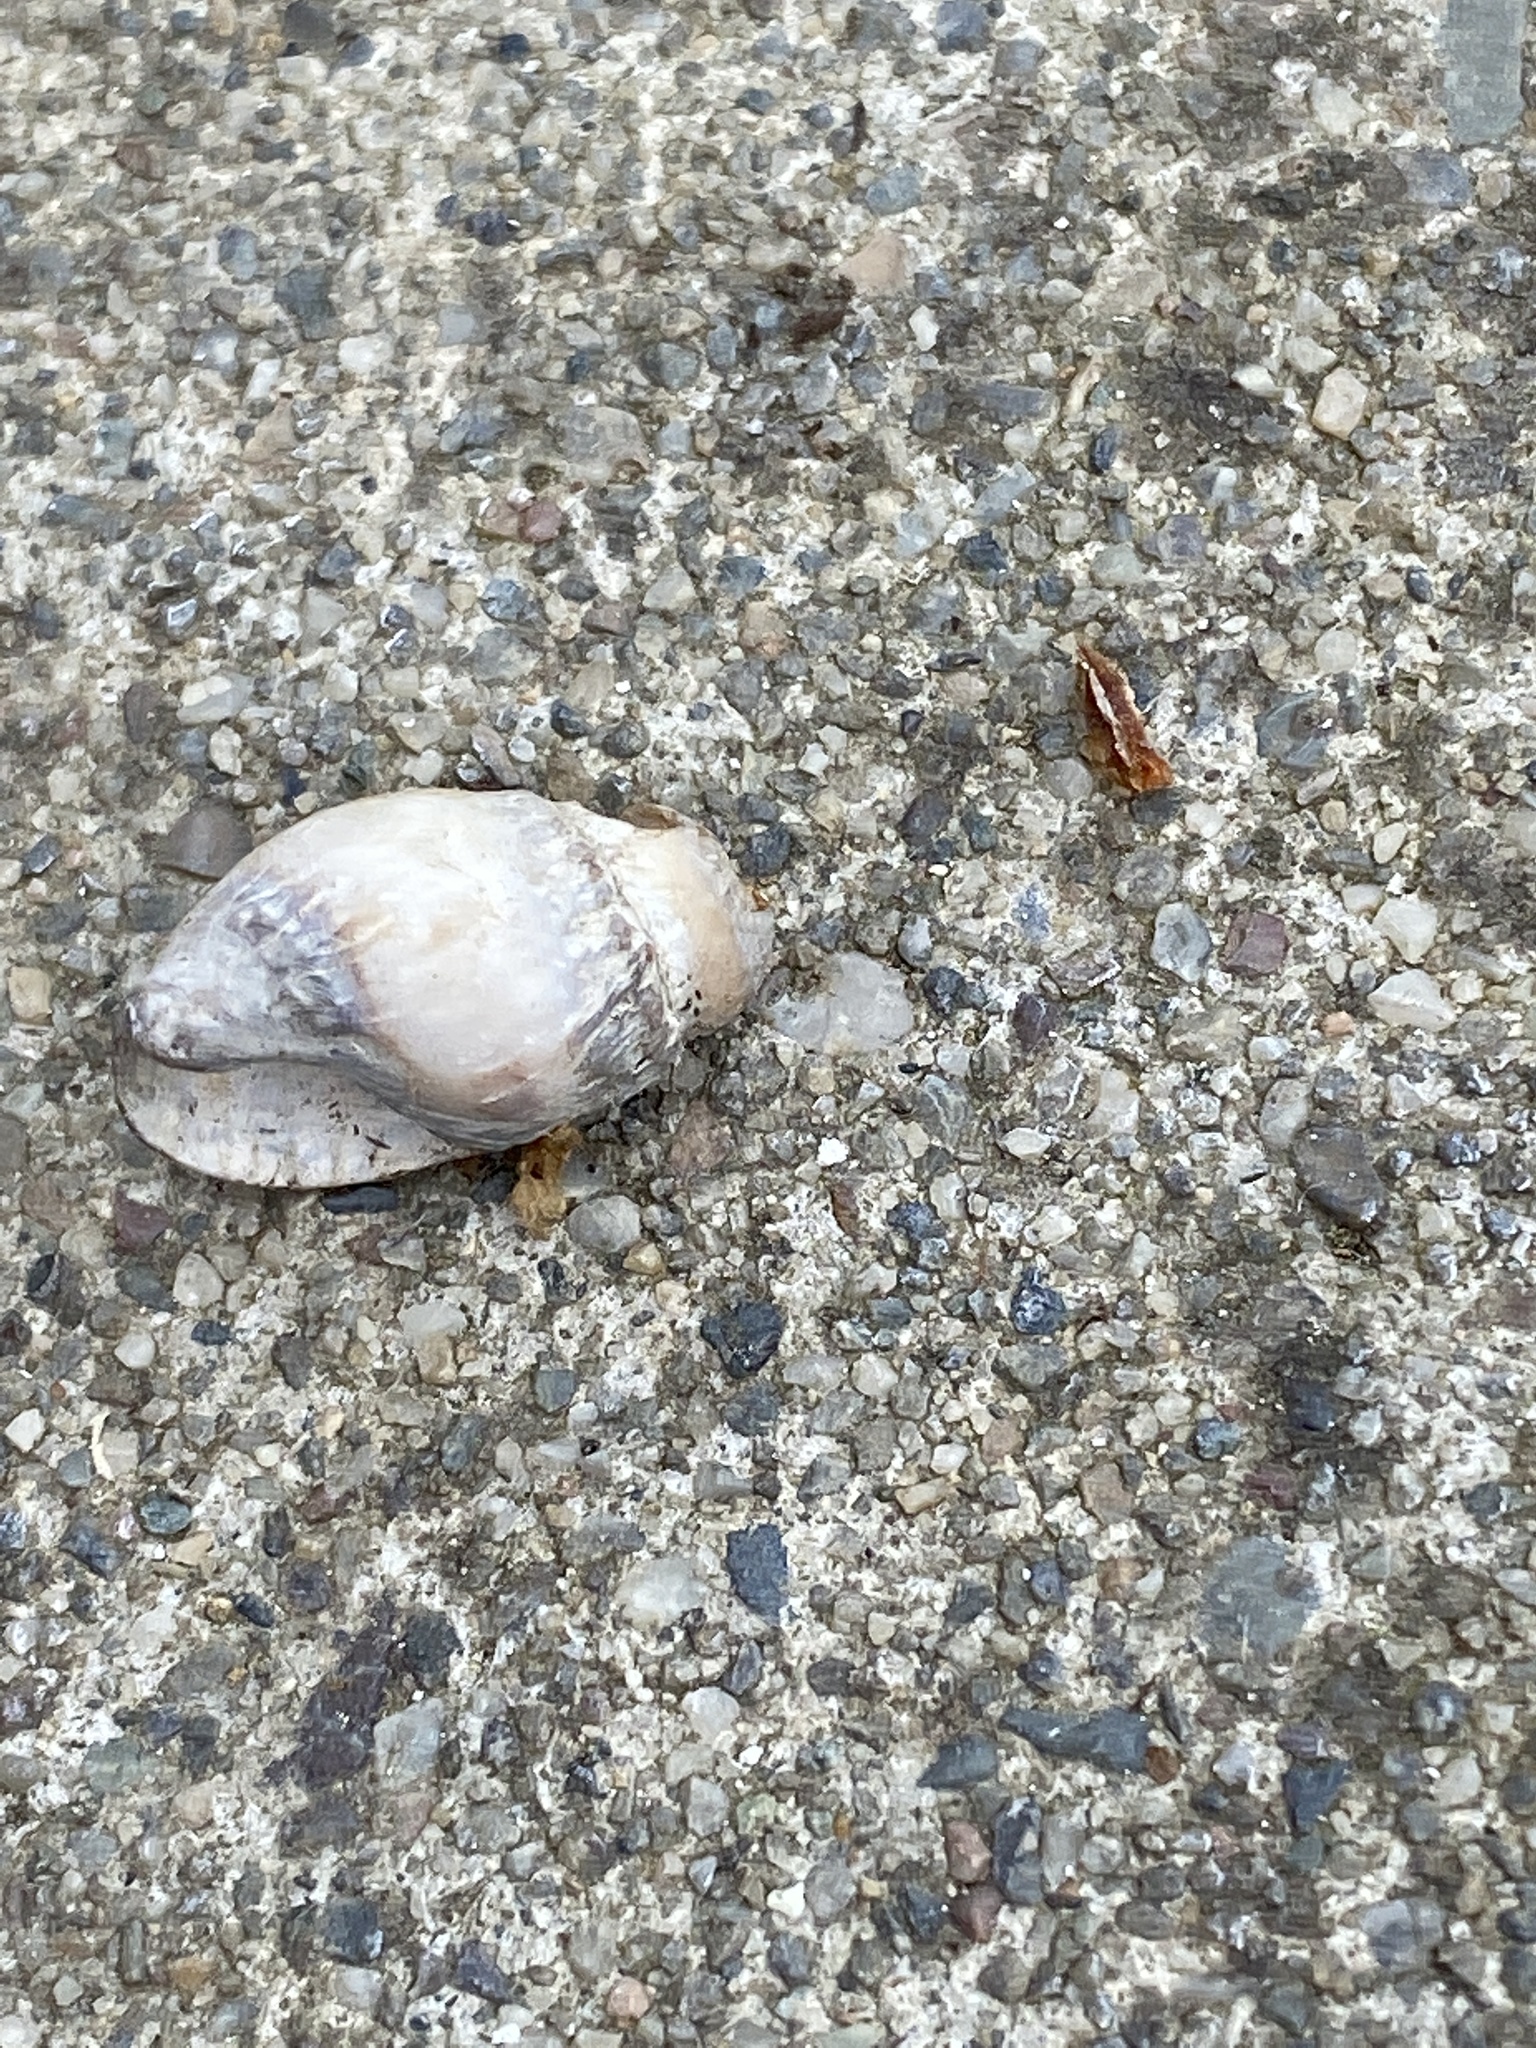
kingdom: Animalia
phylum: Mollusca
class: Gastropoda
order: Neogastropoda
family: Nassariidae
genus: Ilyanassa
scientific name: Ilyanassa obsoleta
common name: Eastern mudsnail
